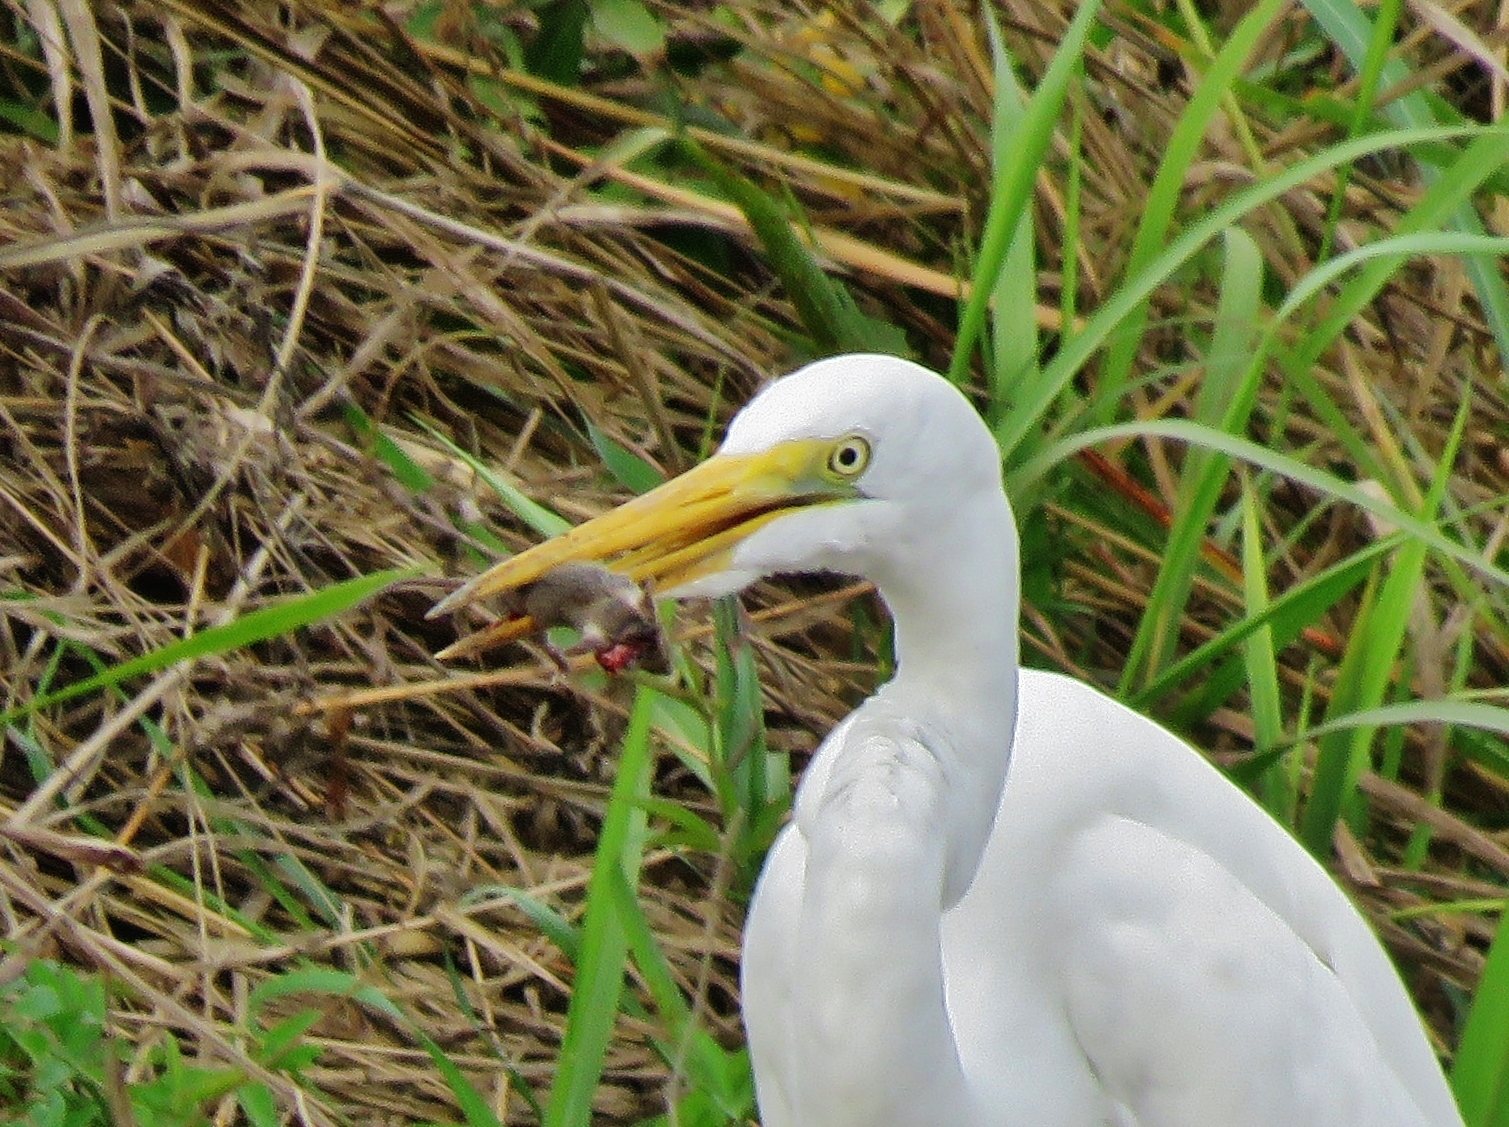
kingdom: Animalia
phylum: Chordata
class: Mammalia
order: Rodentia
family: Muridae
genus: Mus
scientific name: Mus musculus
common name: House mouse
